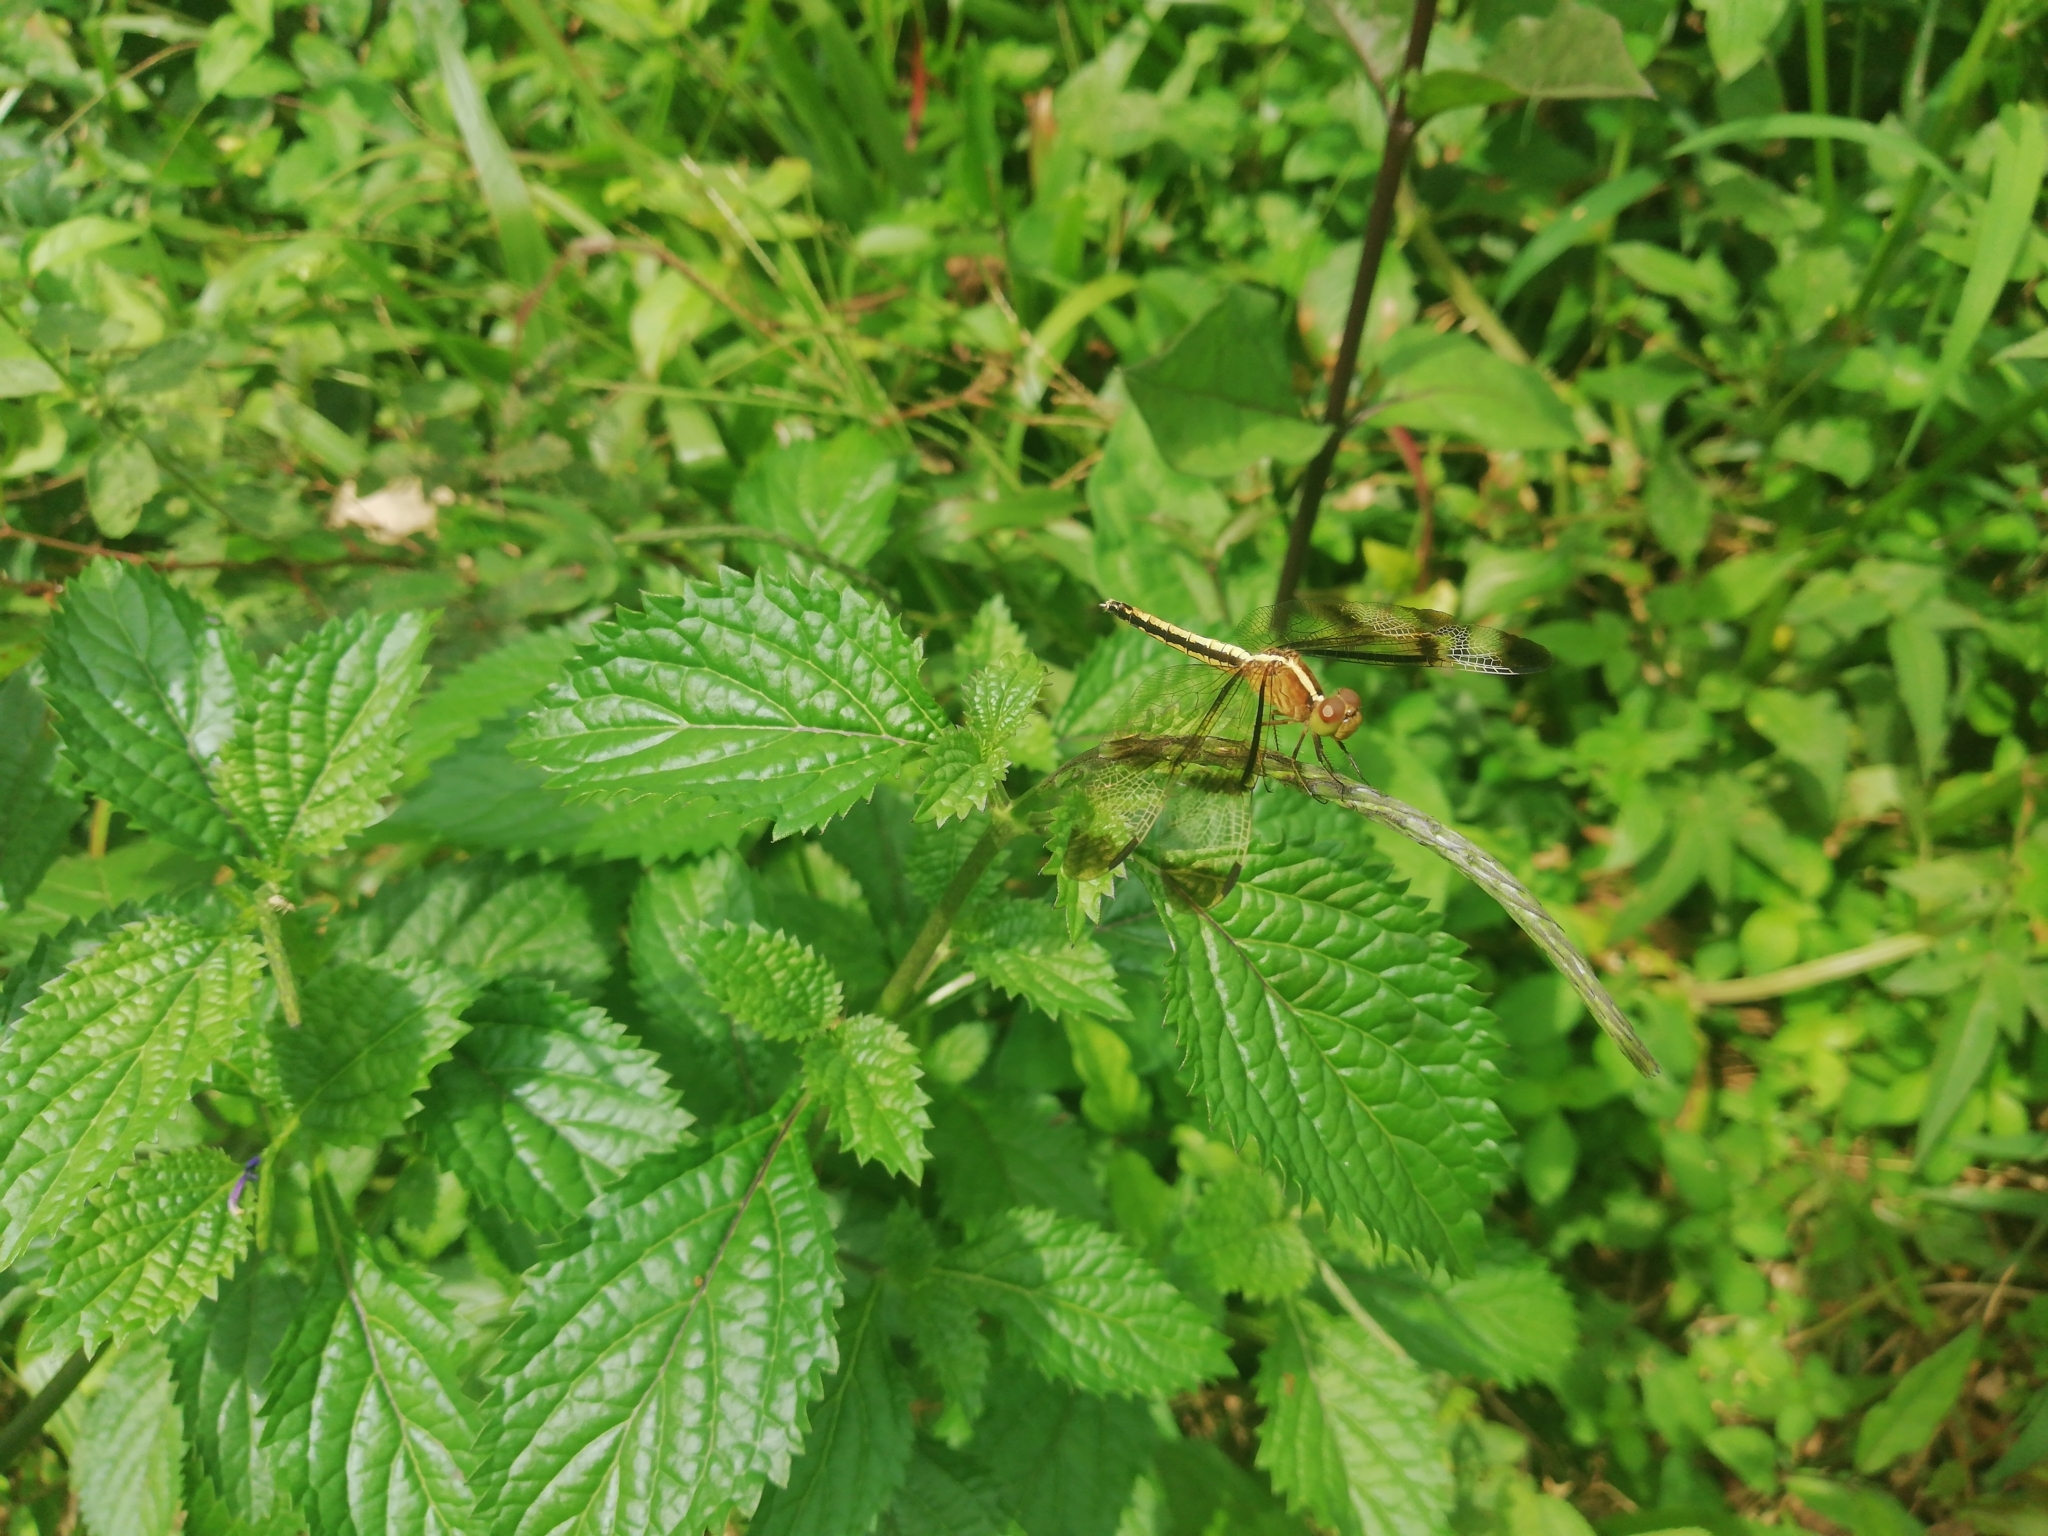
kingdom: Animalia
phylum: Arthropoda
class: Insecta
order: Odonata
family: Libellulidae
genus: Neurothemis
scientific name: Neurothemis tullia
